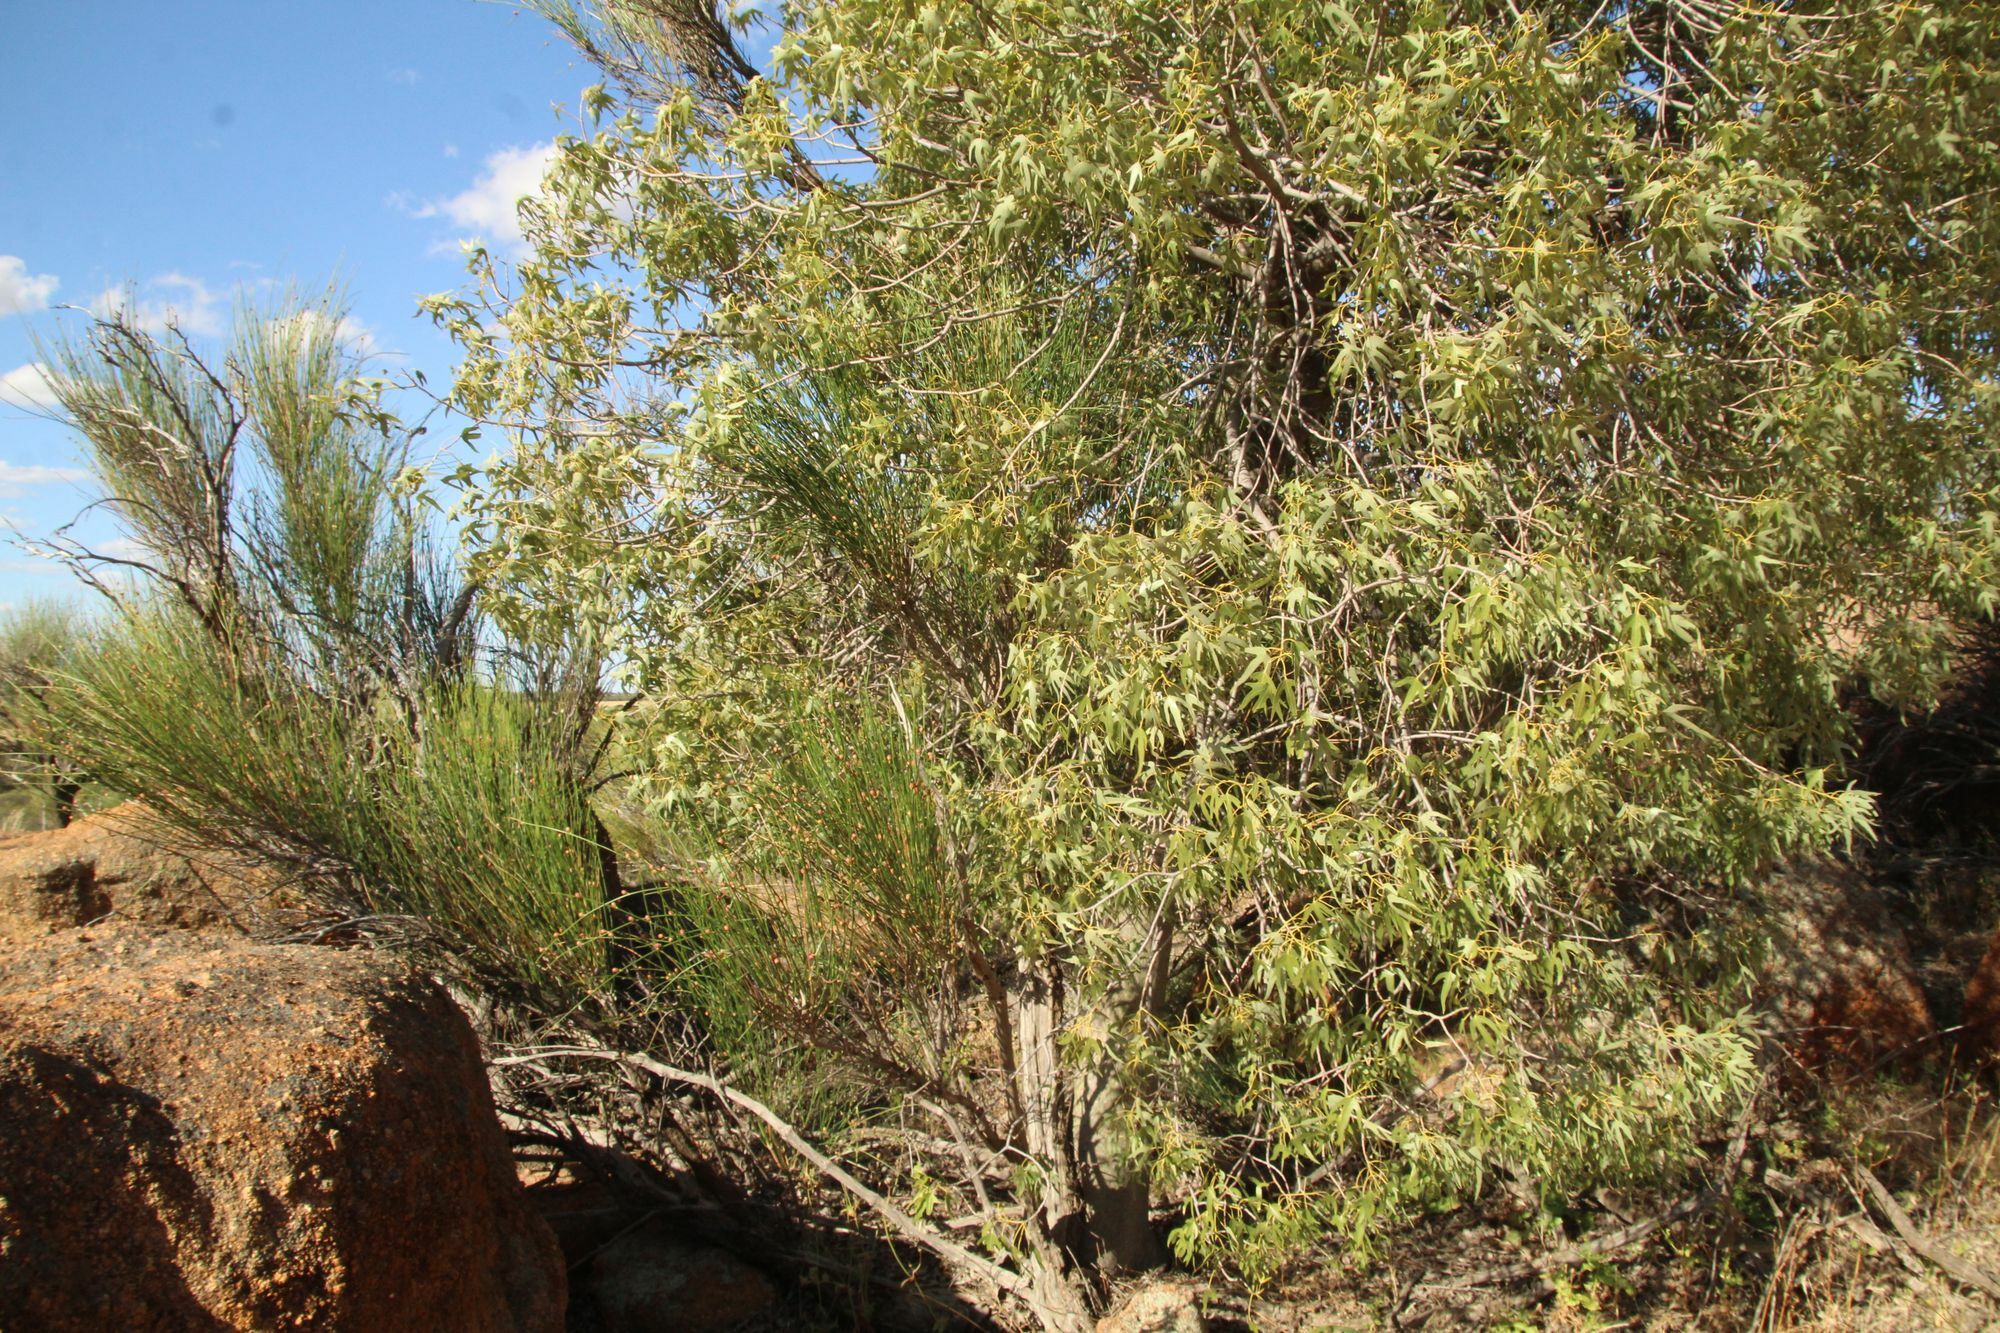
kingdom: Plantae
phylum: Tracheophyta
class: Magnoliopsida
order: Malvales
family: Malvaceae
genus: Brachychiton
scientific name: Brachychiton gregorii
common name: Desert kurrajong
